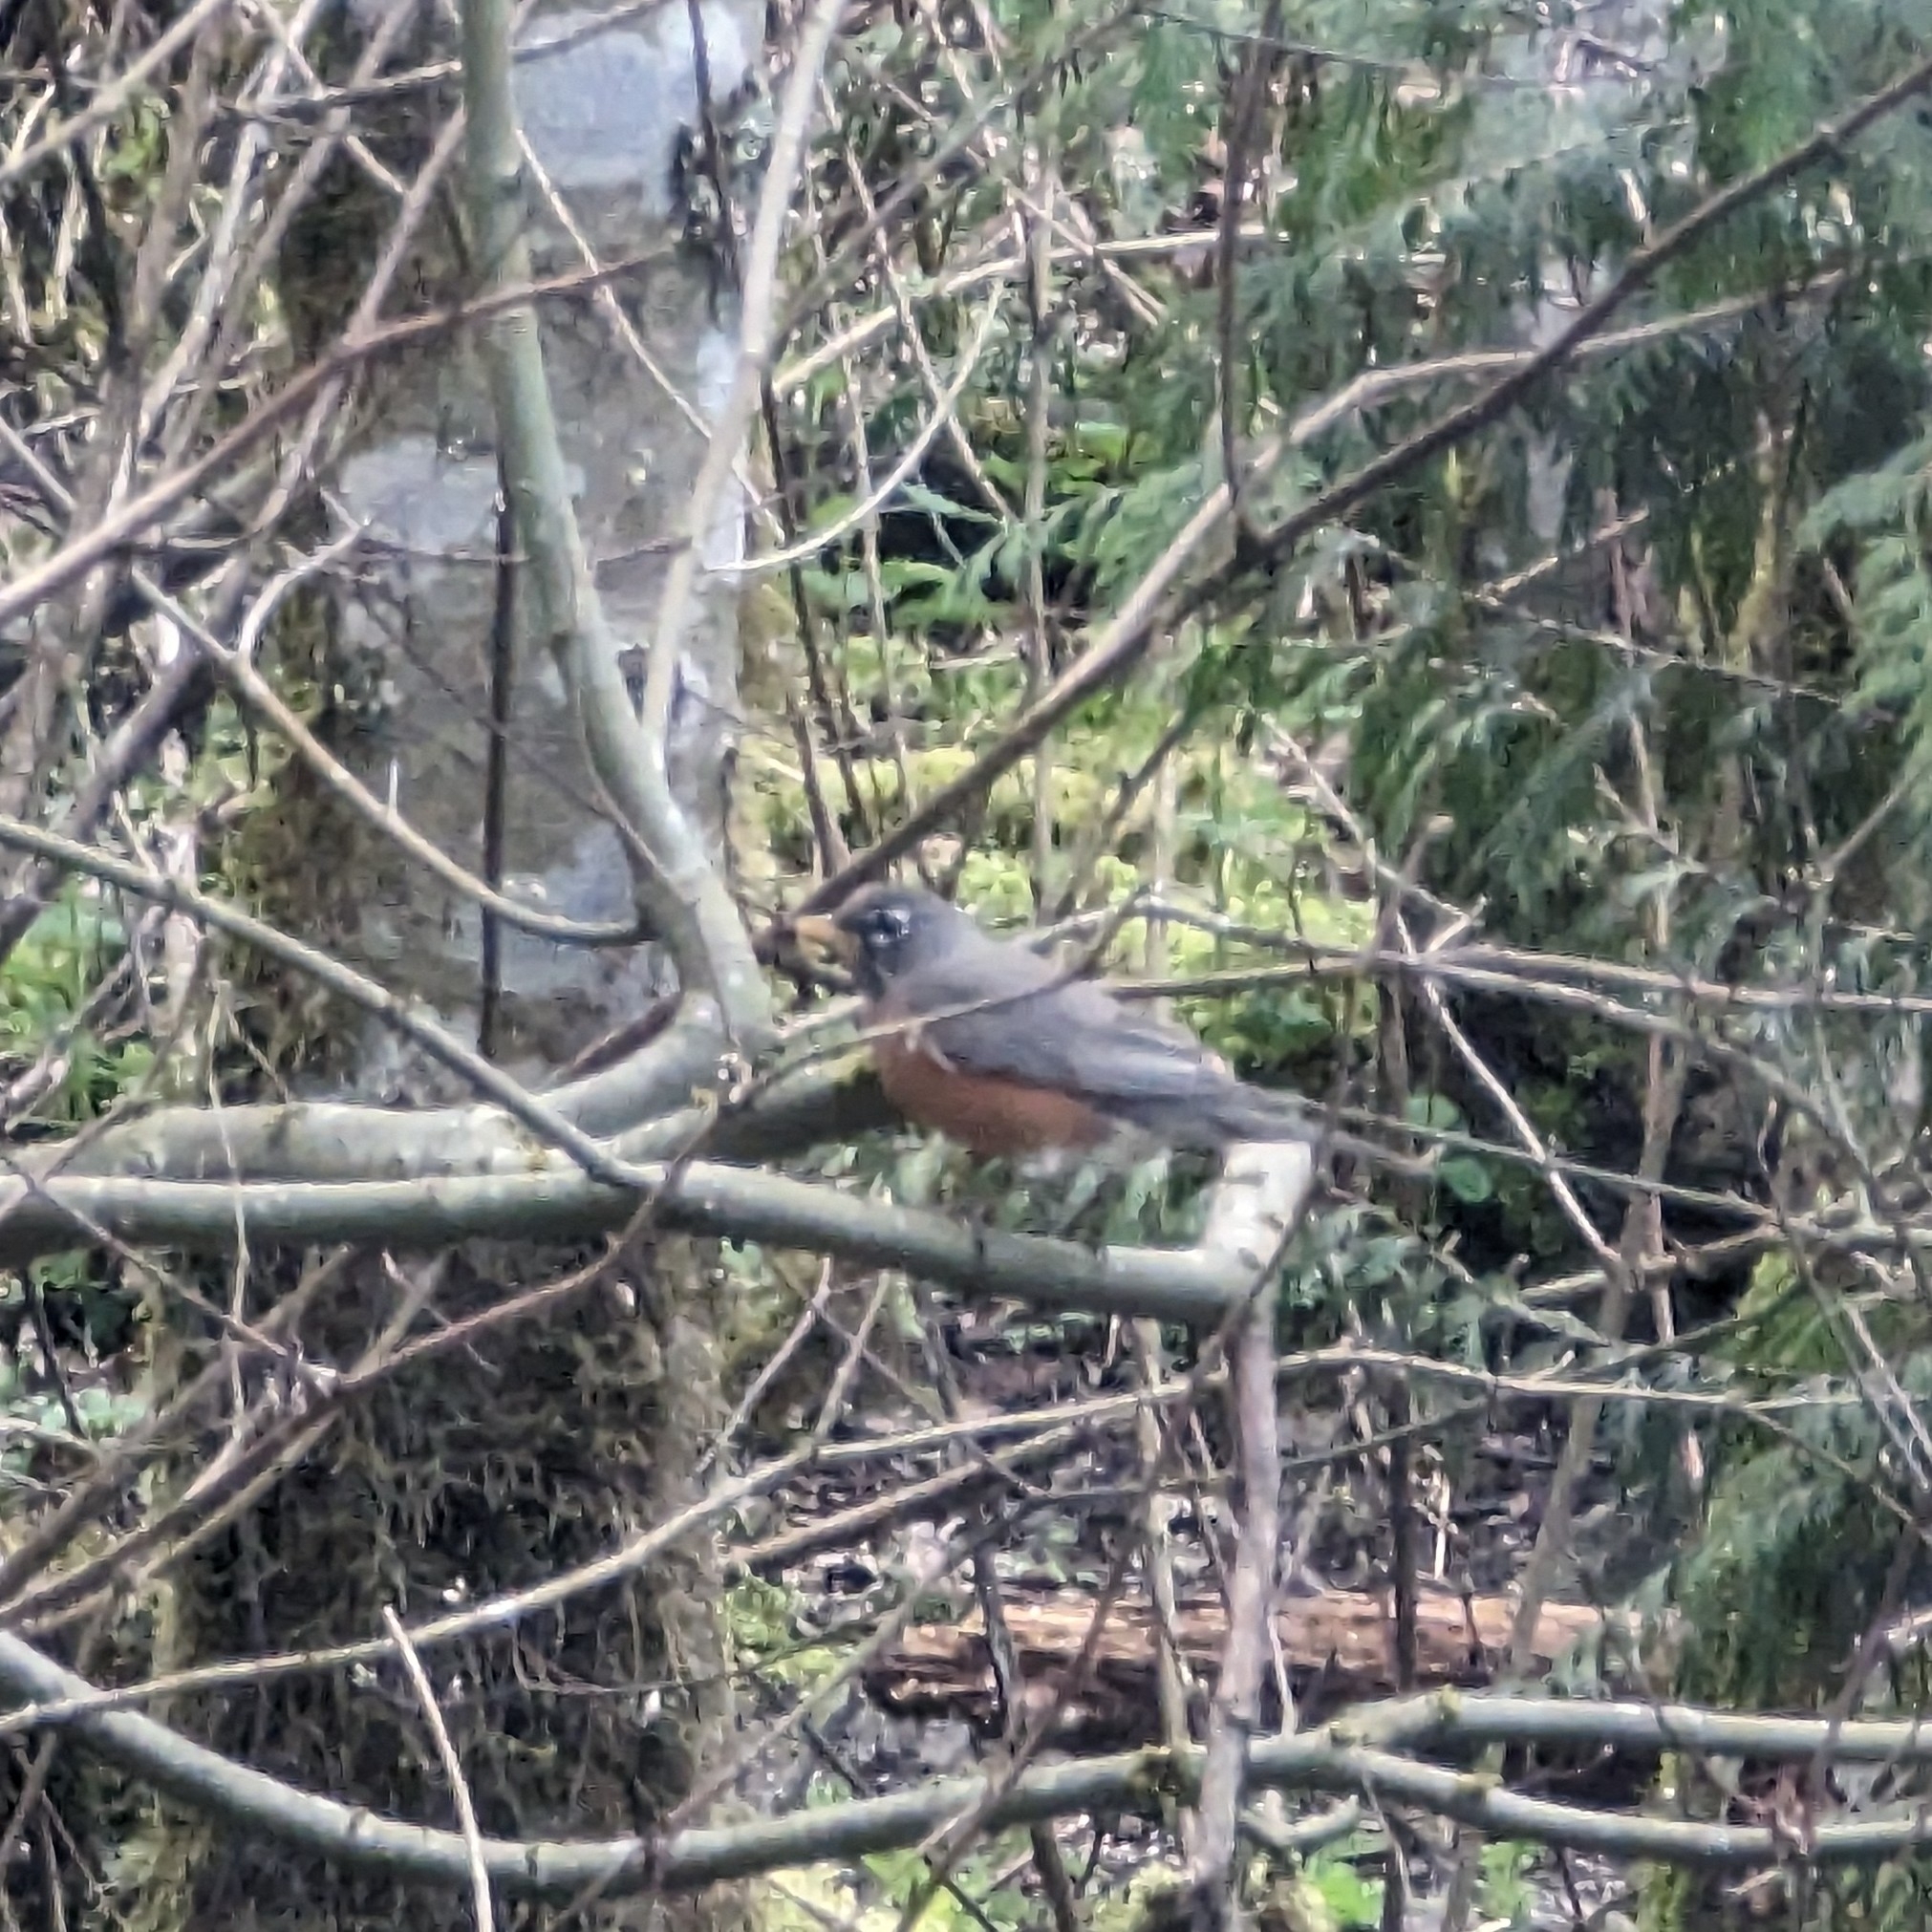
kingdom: Animalia
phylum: Chordata
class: Aves
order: Passeriformes
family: Turdidae
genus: Turdus
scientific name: Turdus migratorius
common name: American robin
